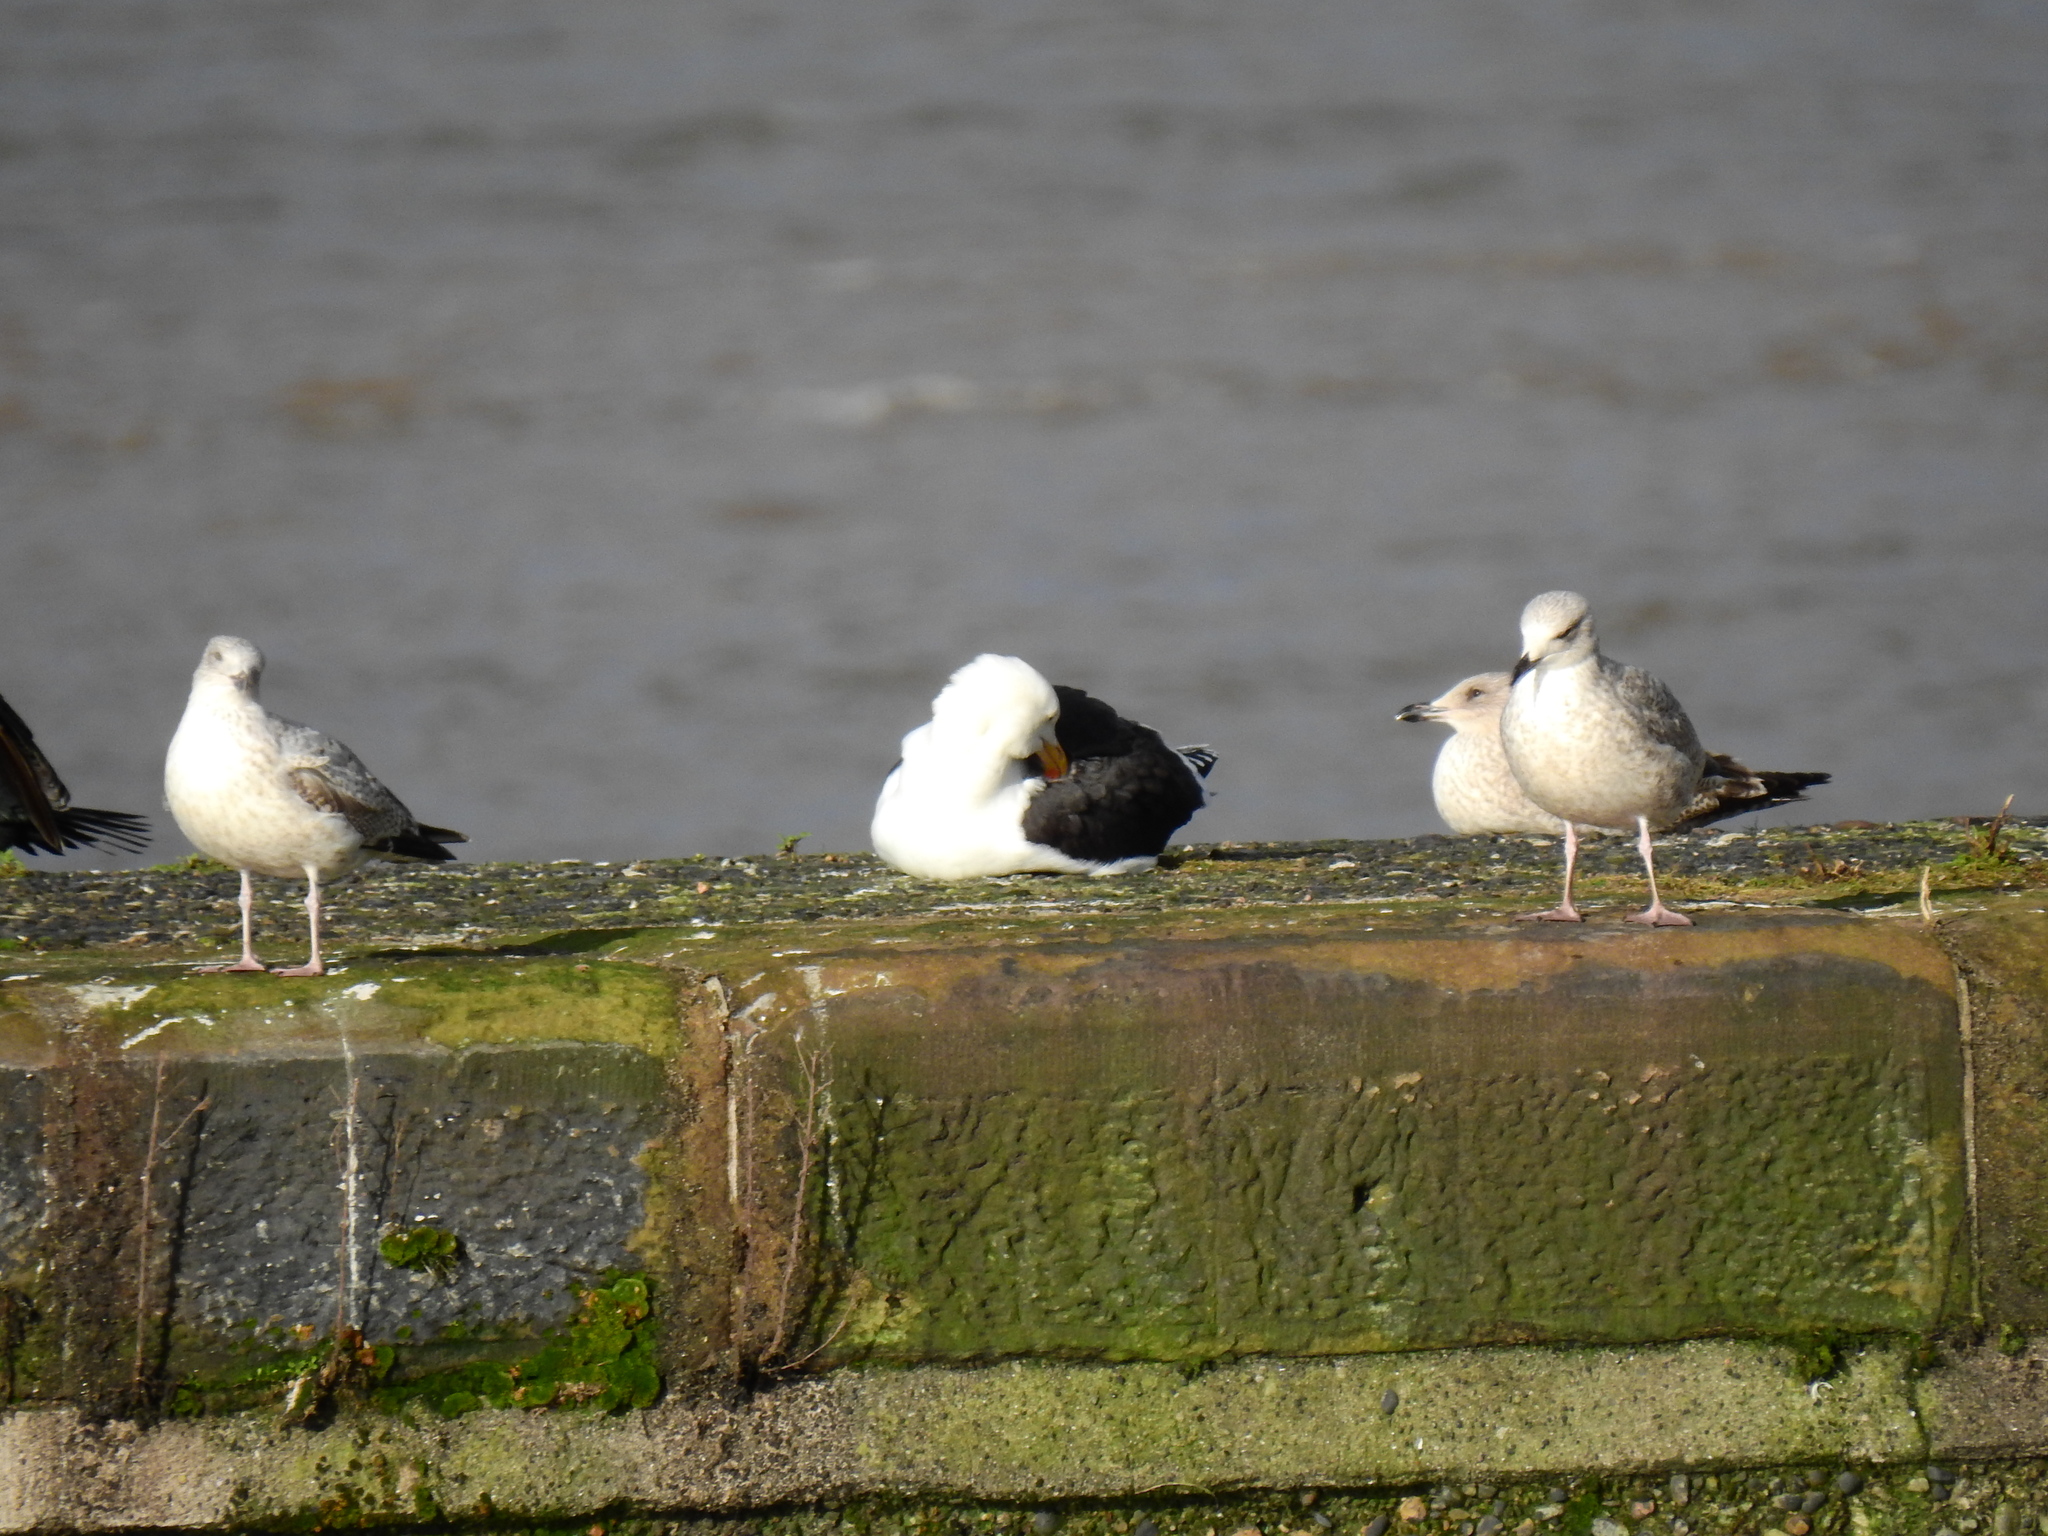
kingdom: Animalia
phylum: Chordata
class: Aves
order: Charadriiformes
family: Laridae
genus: Larus
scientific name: Larus marinus
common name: Great black-backed gull
